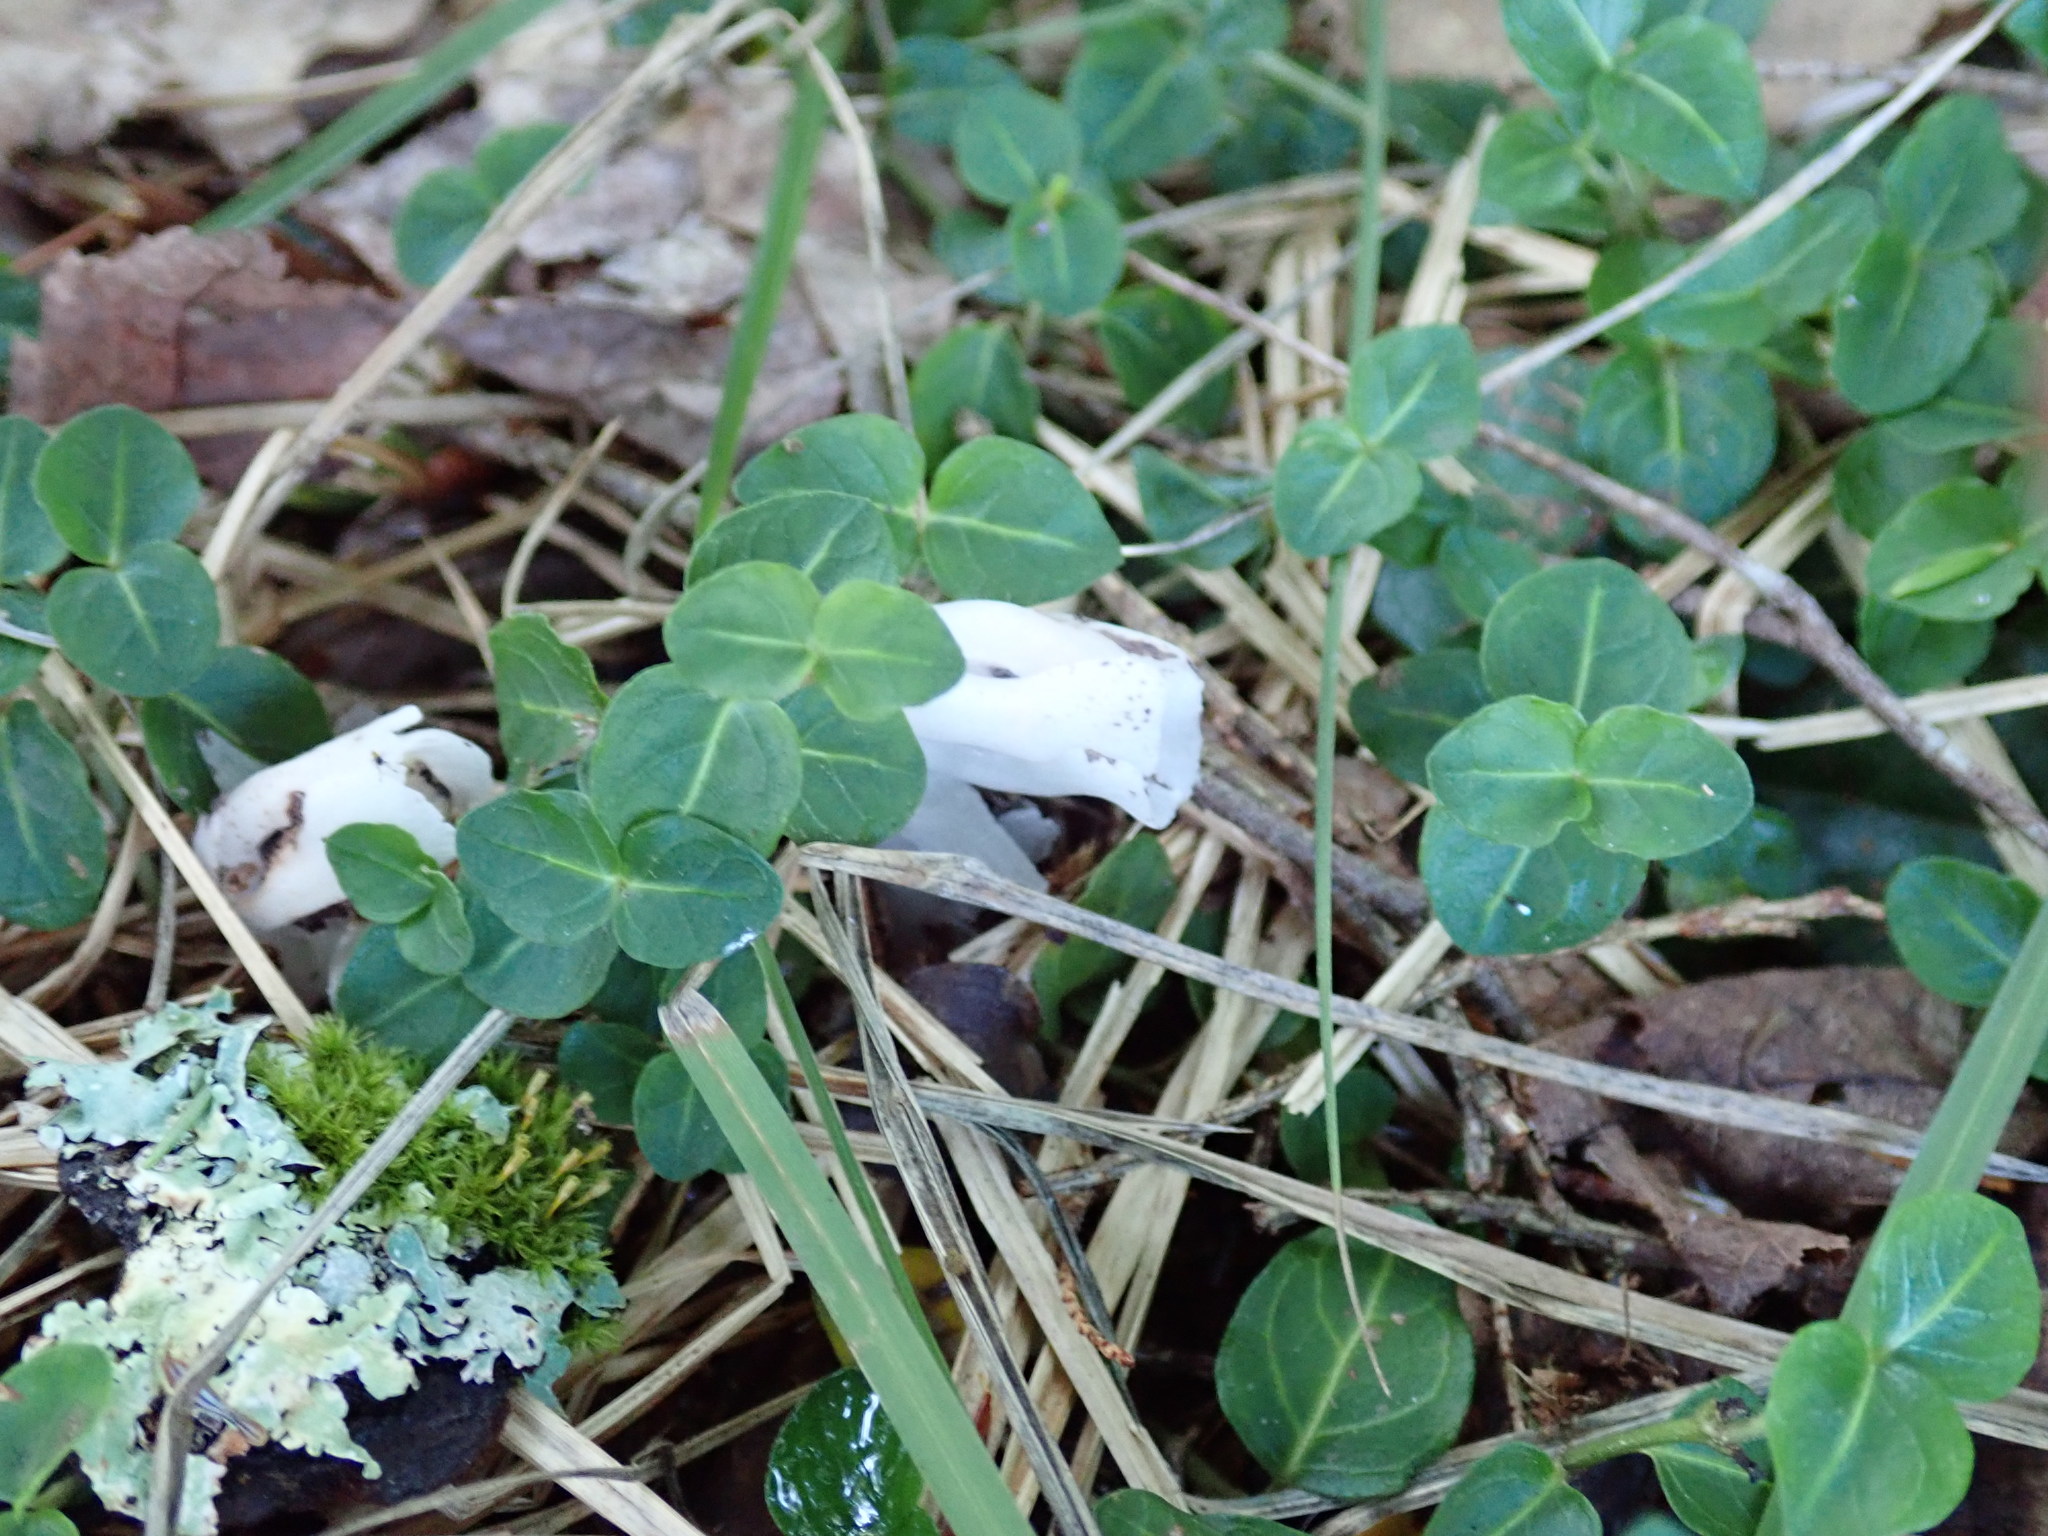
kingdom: Plantae
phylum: Tracheophyta
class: Magnoliopsida
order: Ericales
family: Ericaceae
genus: Monotropa
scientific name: Monotropa uniflora
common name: Convulsion root
